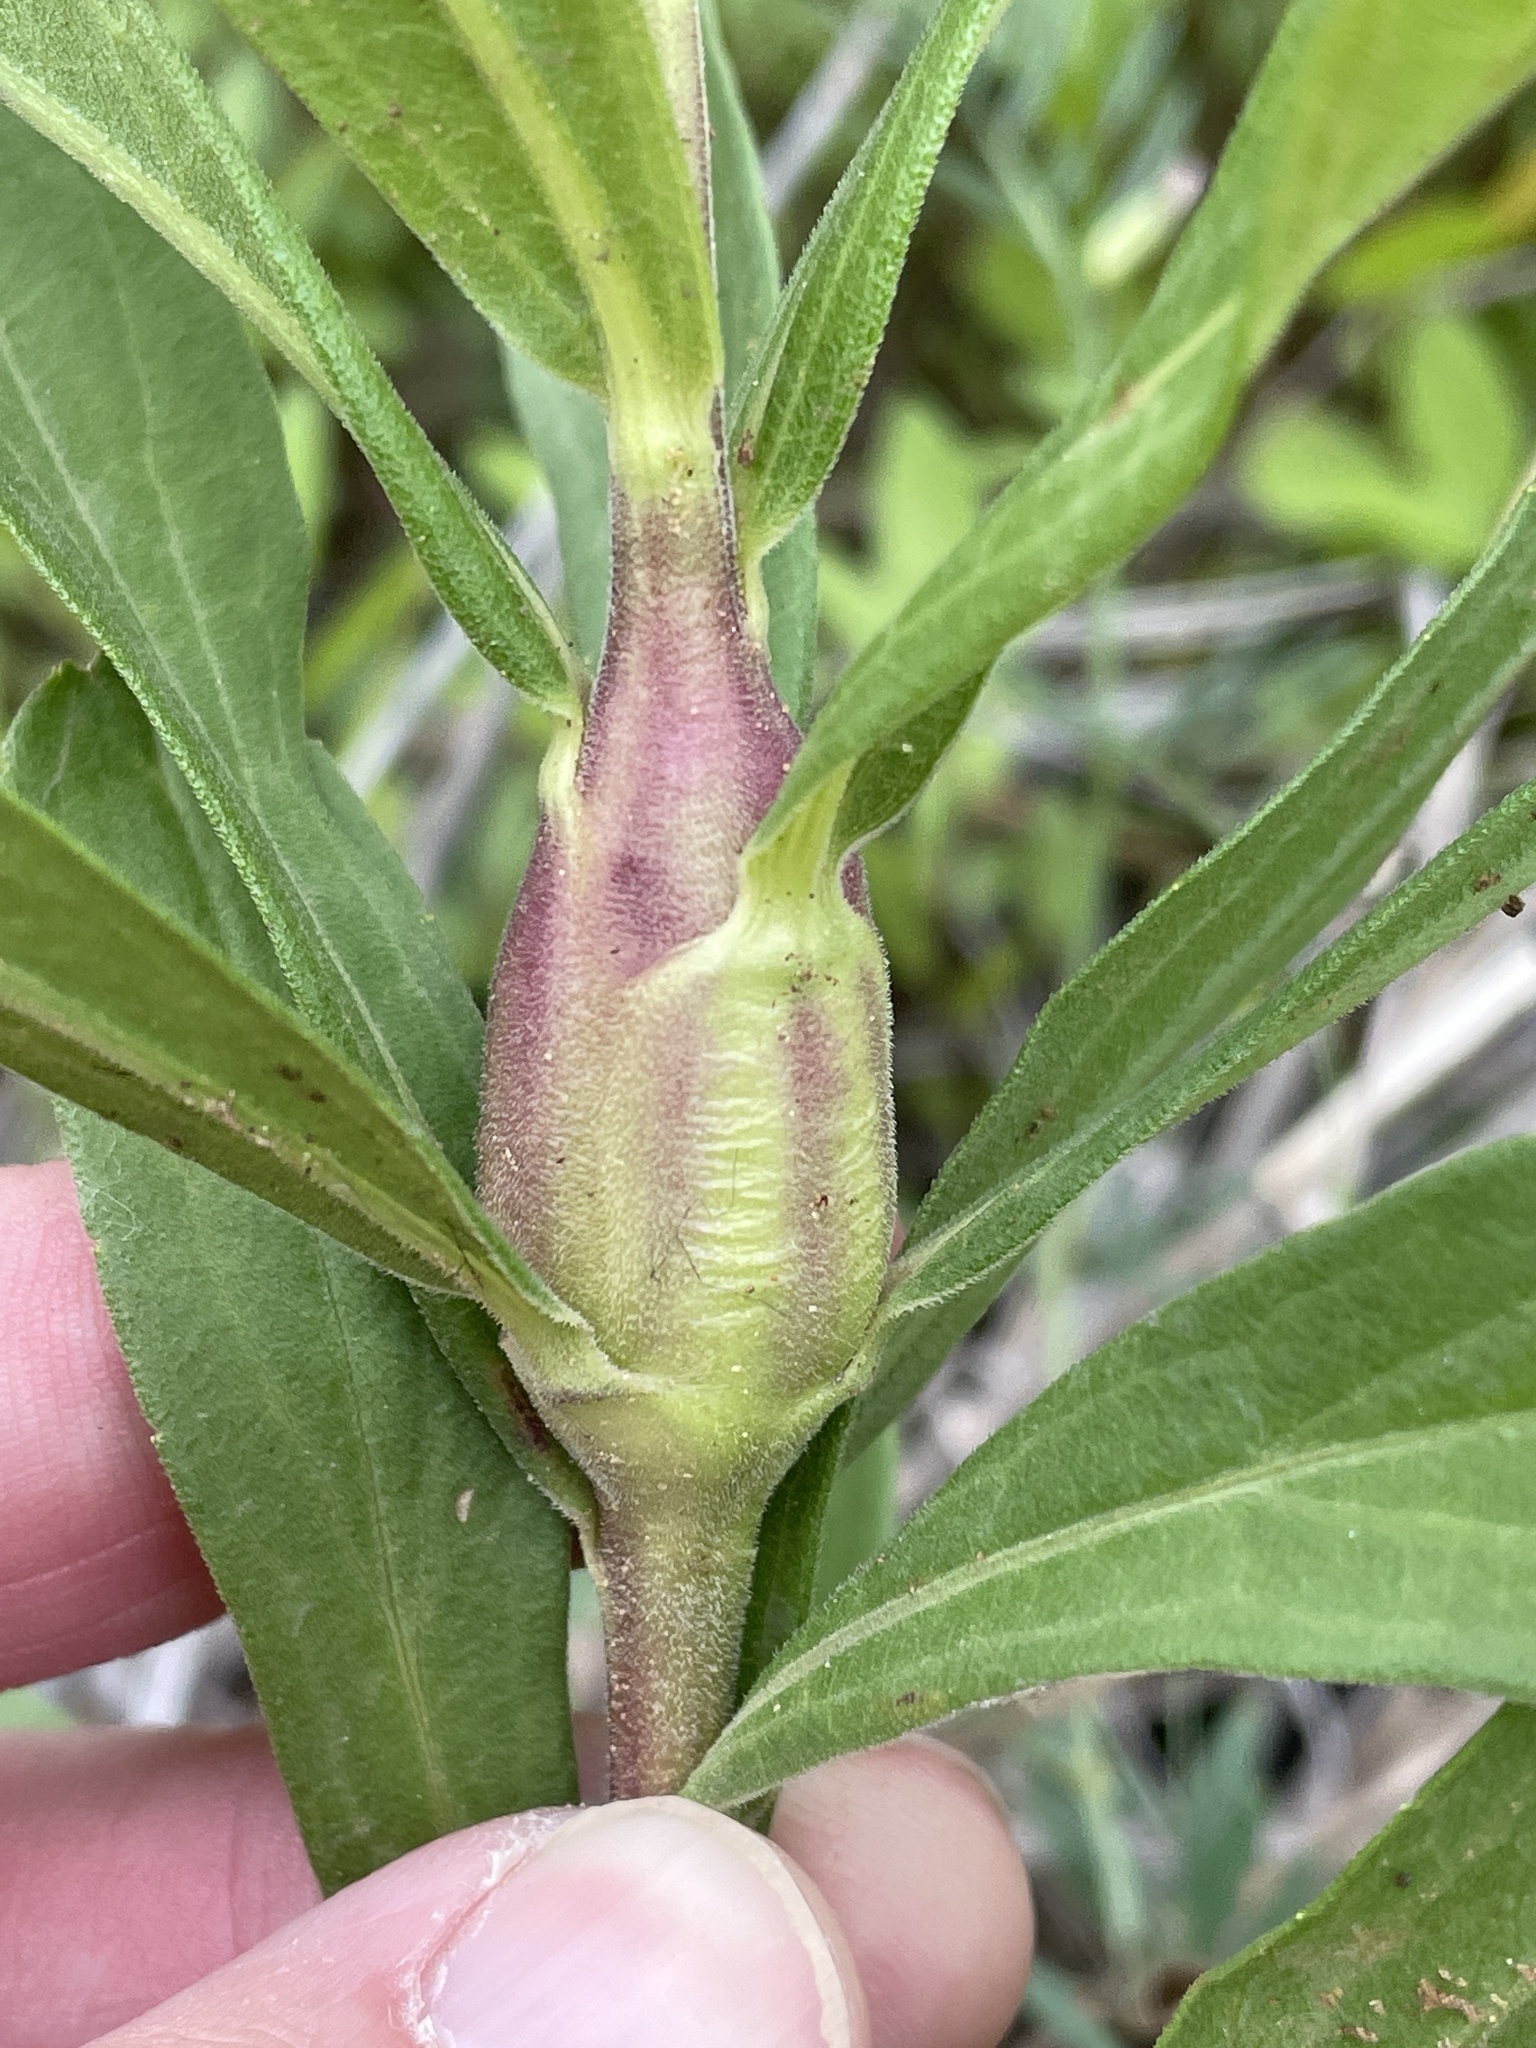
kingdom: Animalia
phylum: Arthropoda
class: Insecta
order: Lepidoptera
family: Gelechiidae
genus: Gnorimoschema
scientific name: Gnorimoschema gallaesolidaginis
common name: Goldenrod elliptical-gall moth
